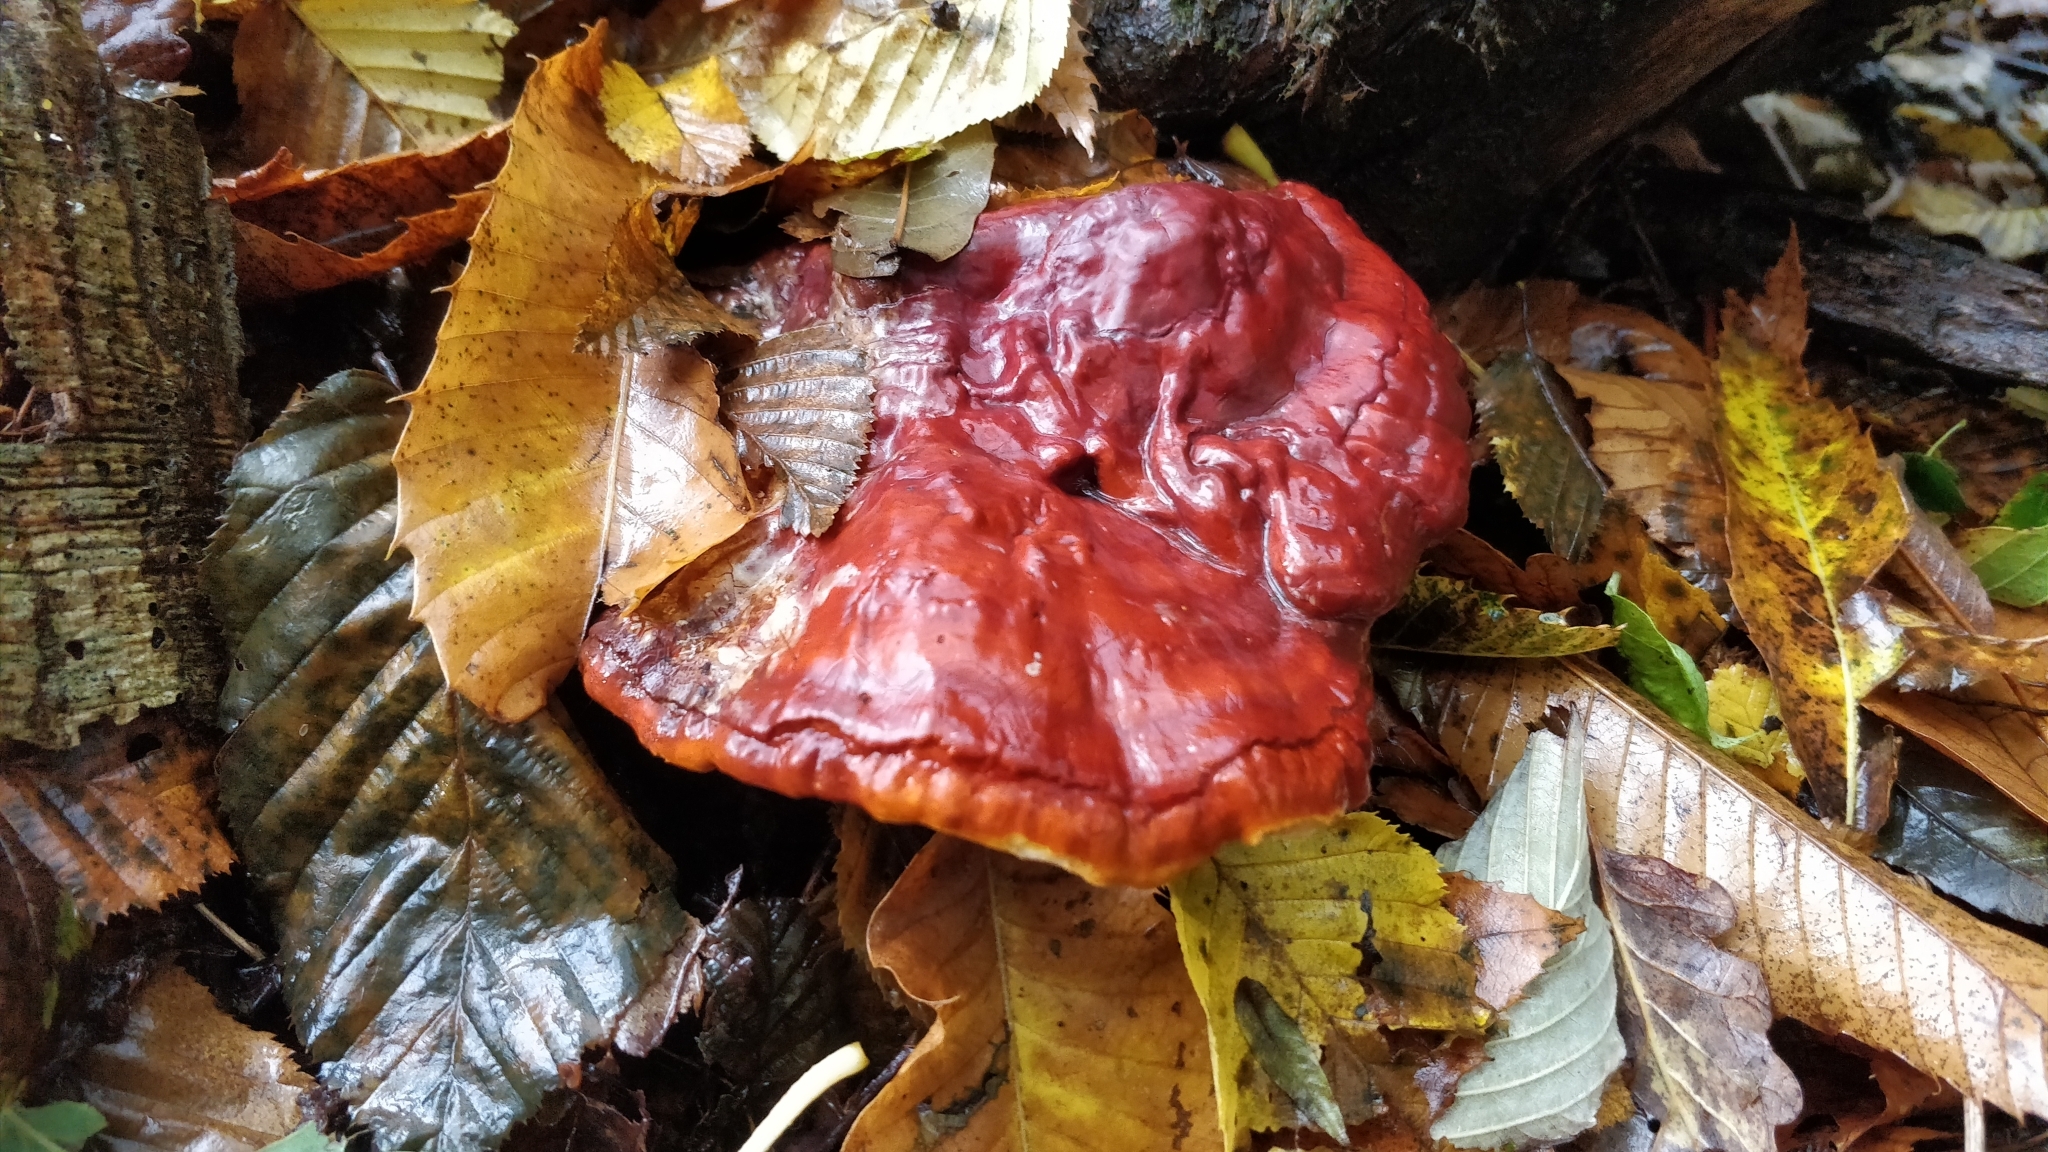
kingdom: Fungi
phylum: Basidiomycota
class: Agaricomycetes
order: Polyporales
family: Polyporaceae
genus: Ganoderma
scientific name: Ganoderma lucidum
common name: Lacquered bracket
